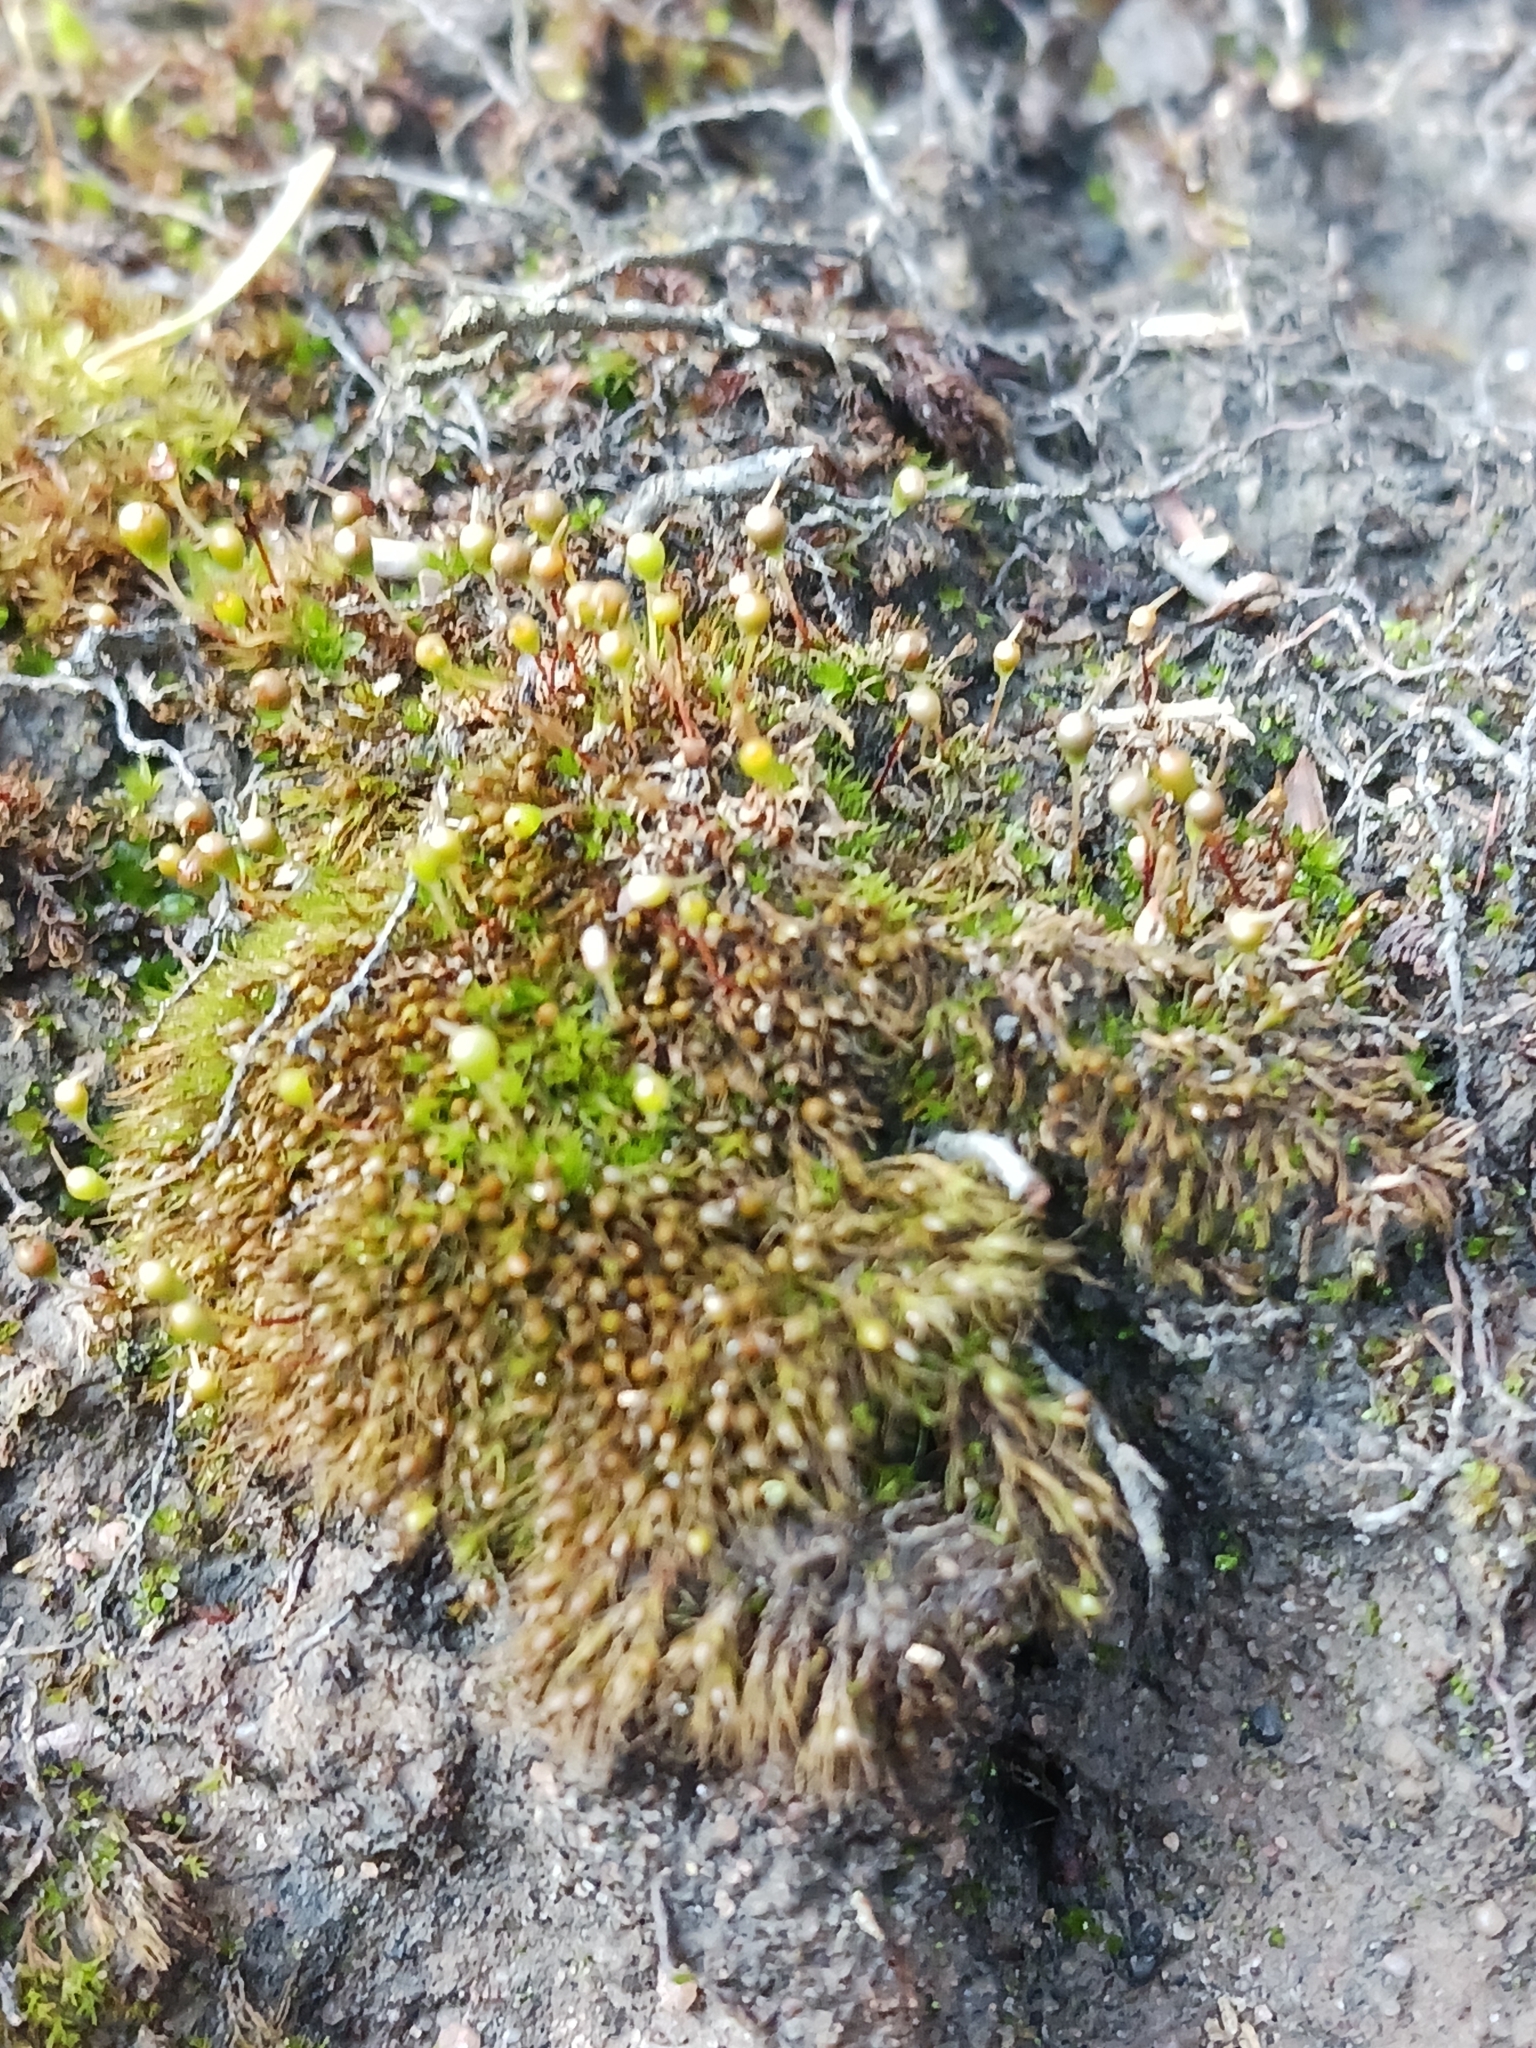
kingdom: Plantae
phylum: Bryophyta
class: Bryopsida
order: Funariales
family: Funariaceae
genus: Entosthodon
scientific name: Entosthodon fascicularis
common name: Hasselquist's hyssop
